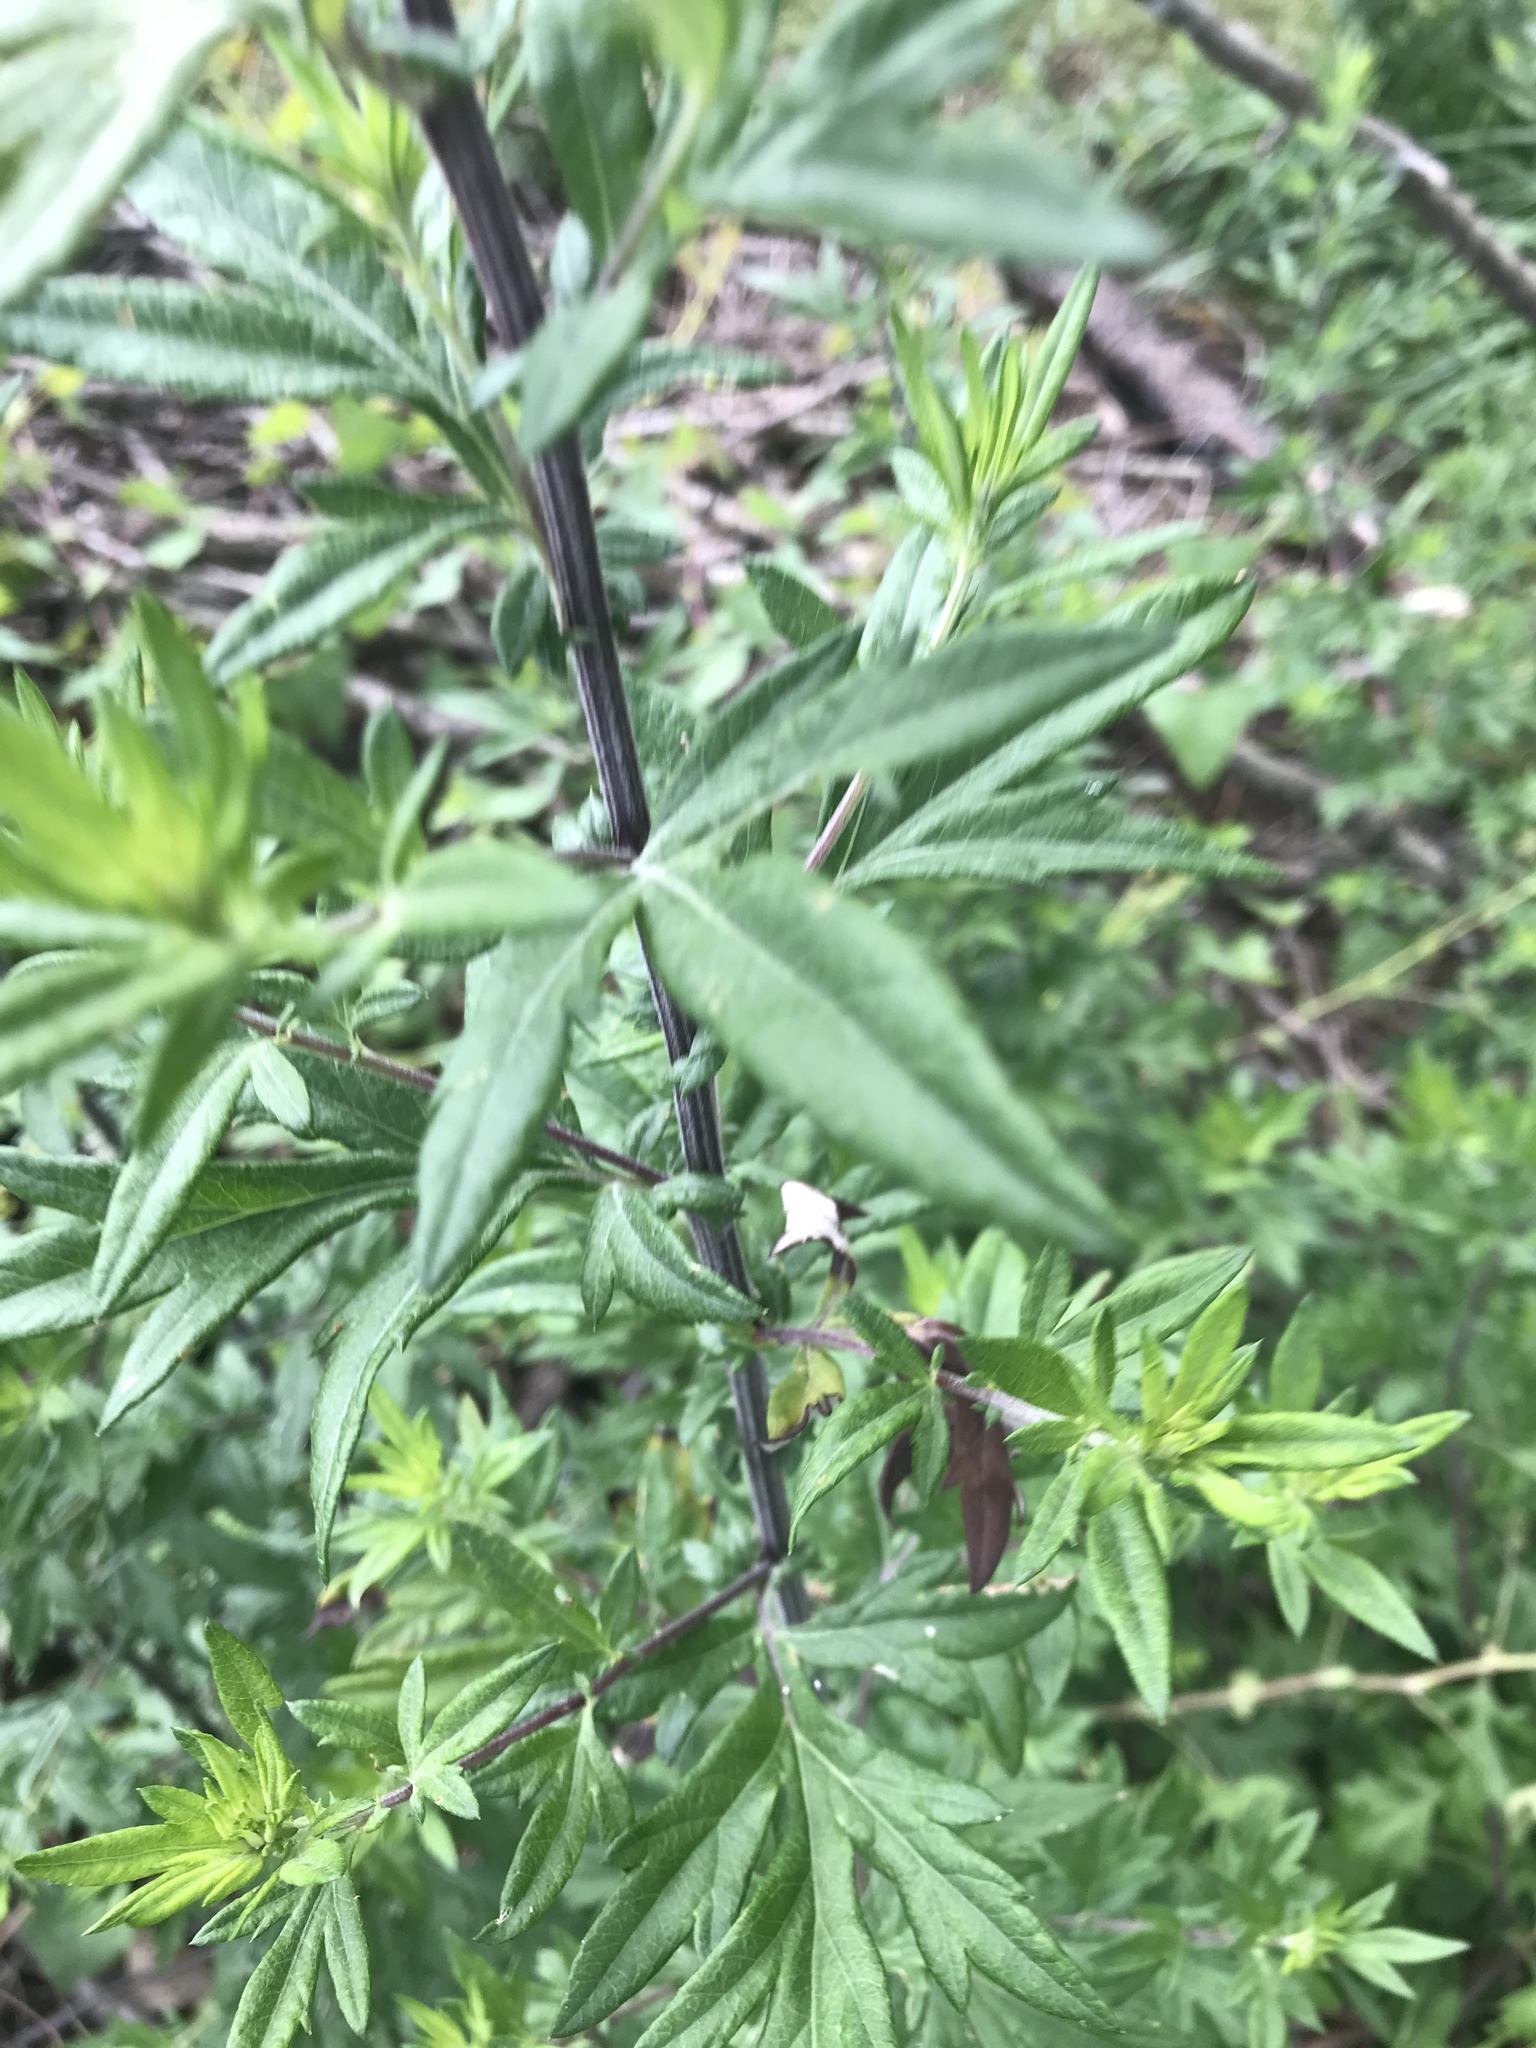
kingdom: Plantae
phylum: Tracheophyta
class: Magnoliopsida
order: Asterales
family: Asteraceae
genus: Artemisia
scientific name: Artemisia vulgaris
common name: Mugwort
